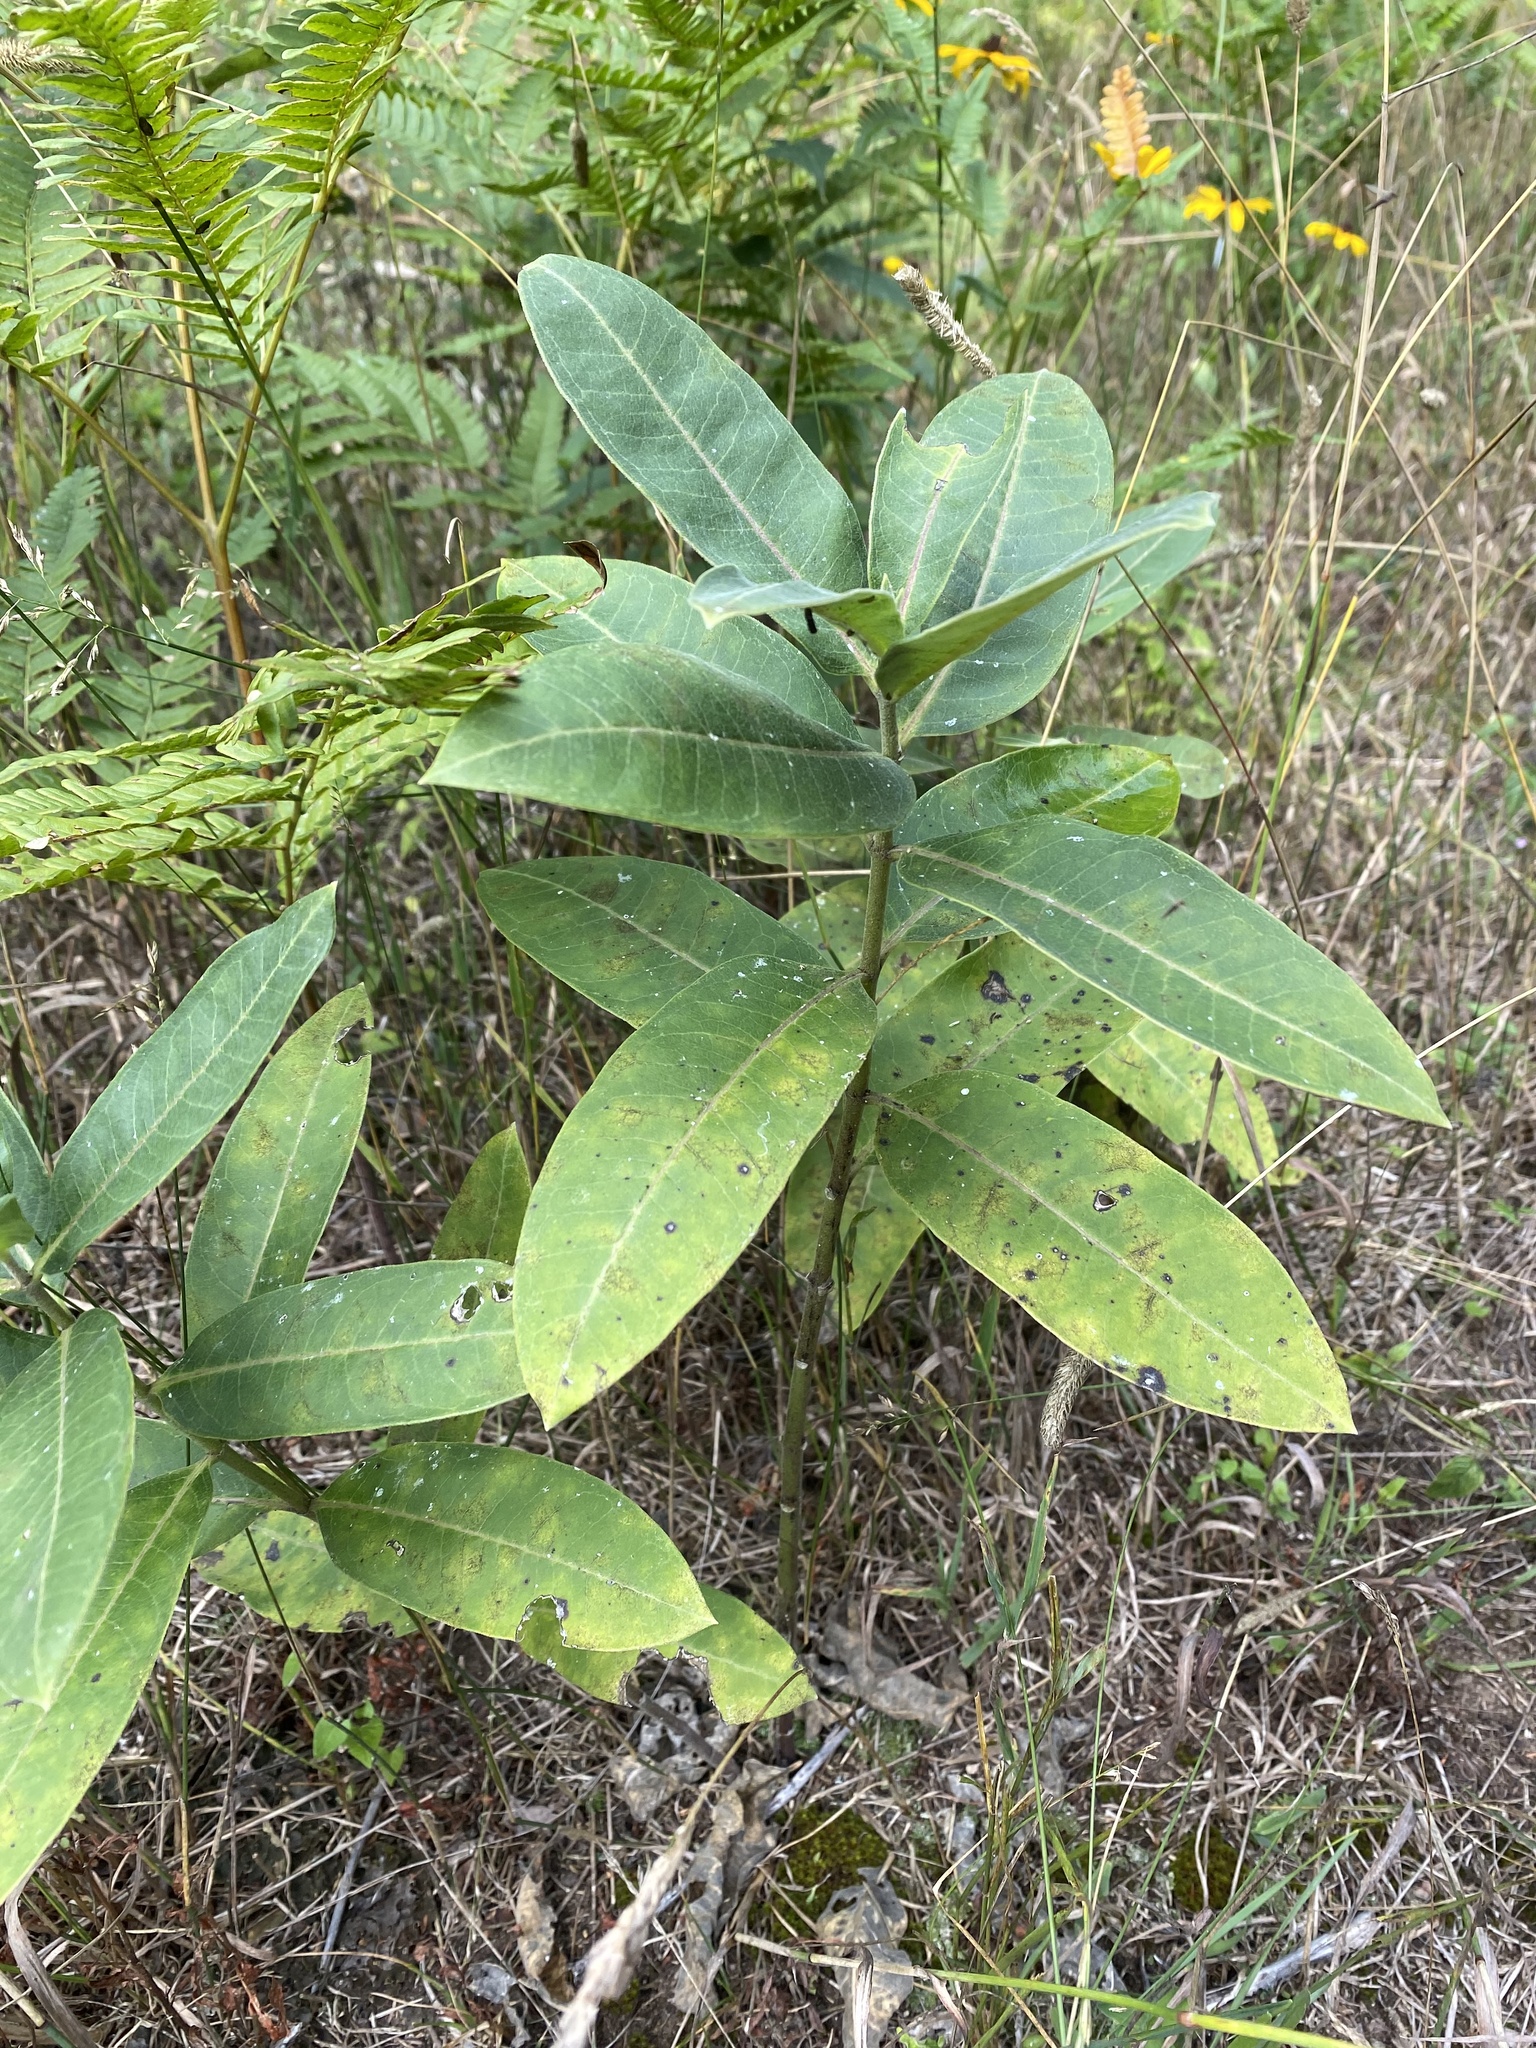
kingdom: Plantae
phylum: Tracheophyta
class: Magnoliopsida
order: Gentianales
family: Apocynaceae
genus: Asclepias
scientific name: Asclepias syriaca
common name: Common milkweed
